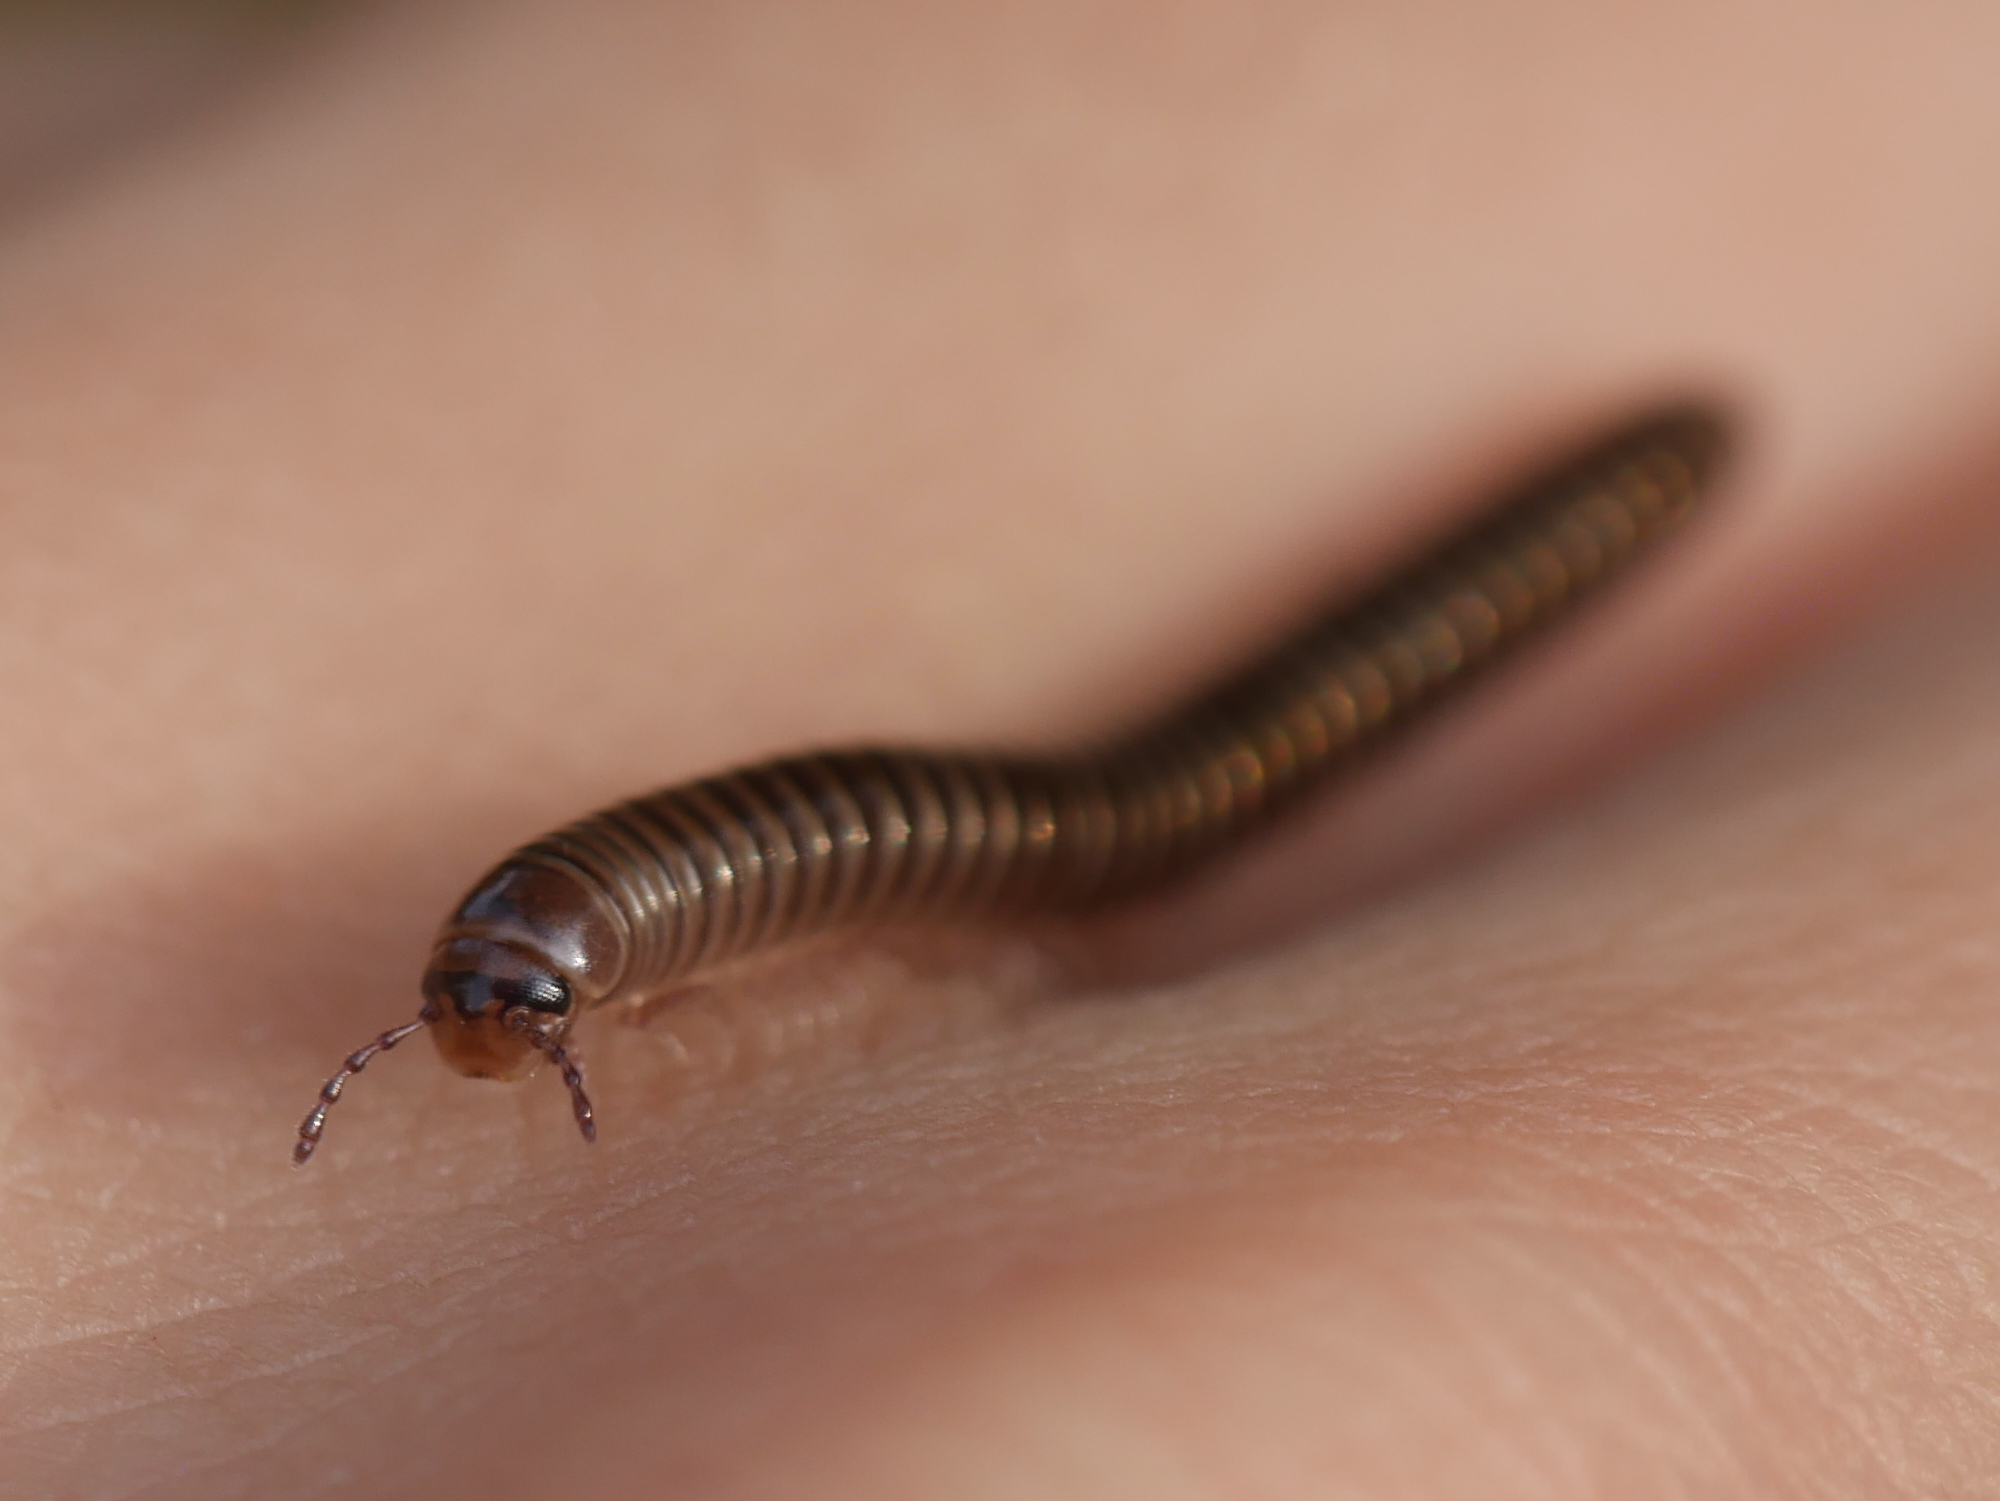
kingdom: Animalia
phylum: Arthropoda
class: Diplopoda
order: Julida
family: Julidae
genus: Cylindroiulus
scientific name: Cylindroiulus caeruleocinctus
